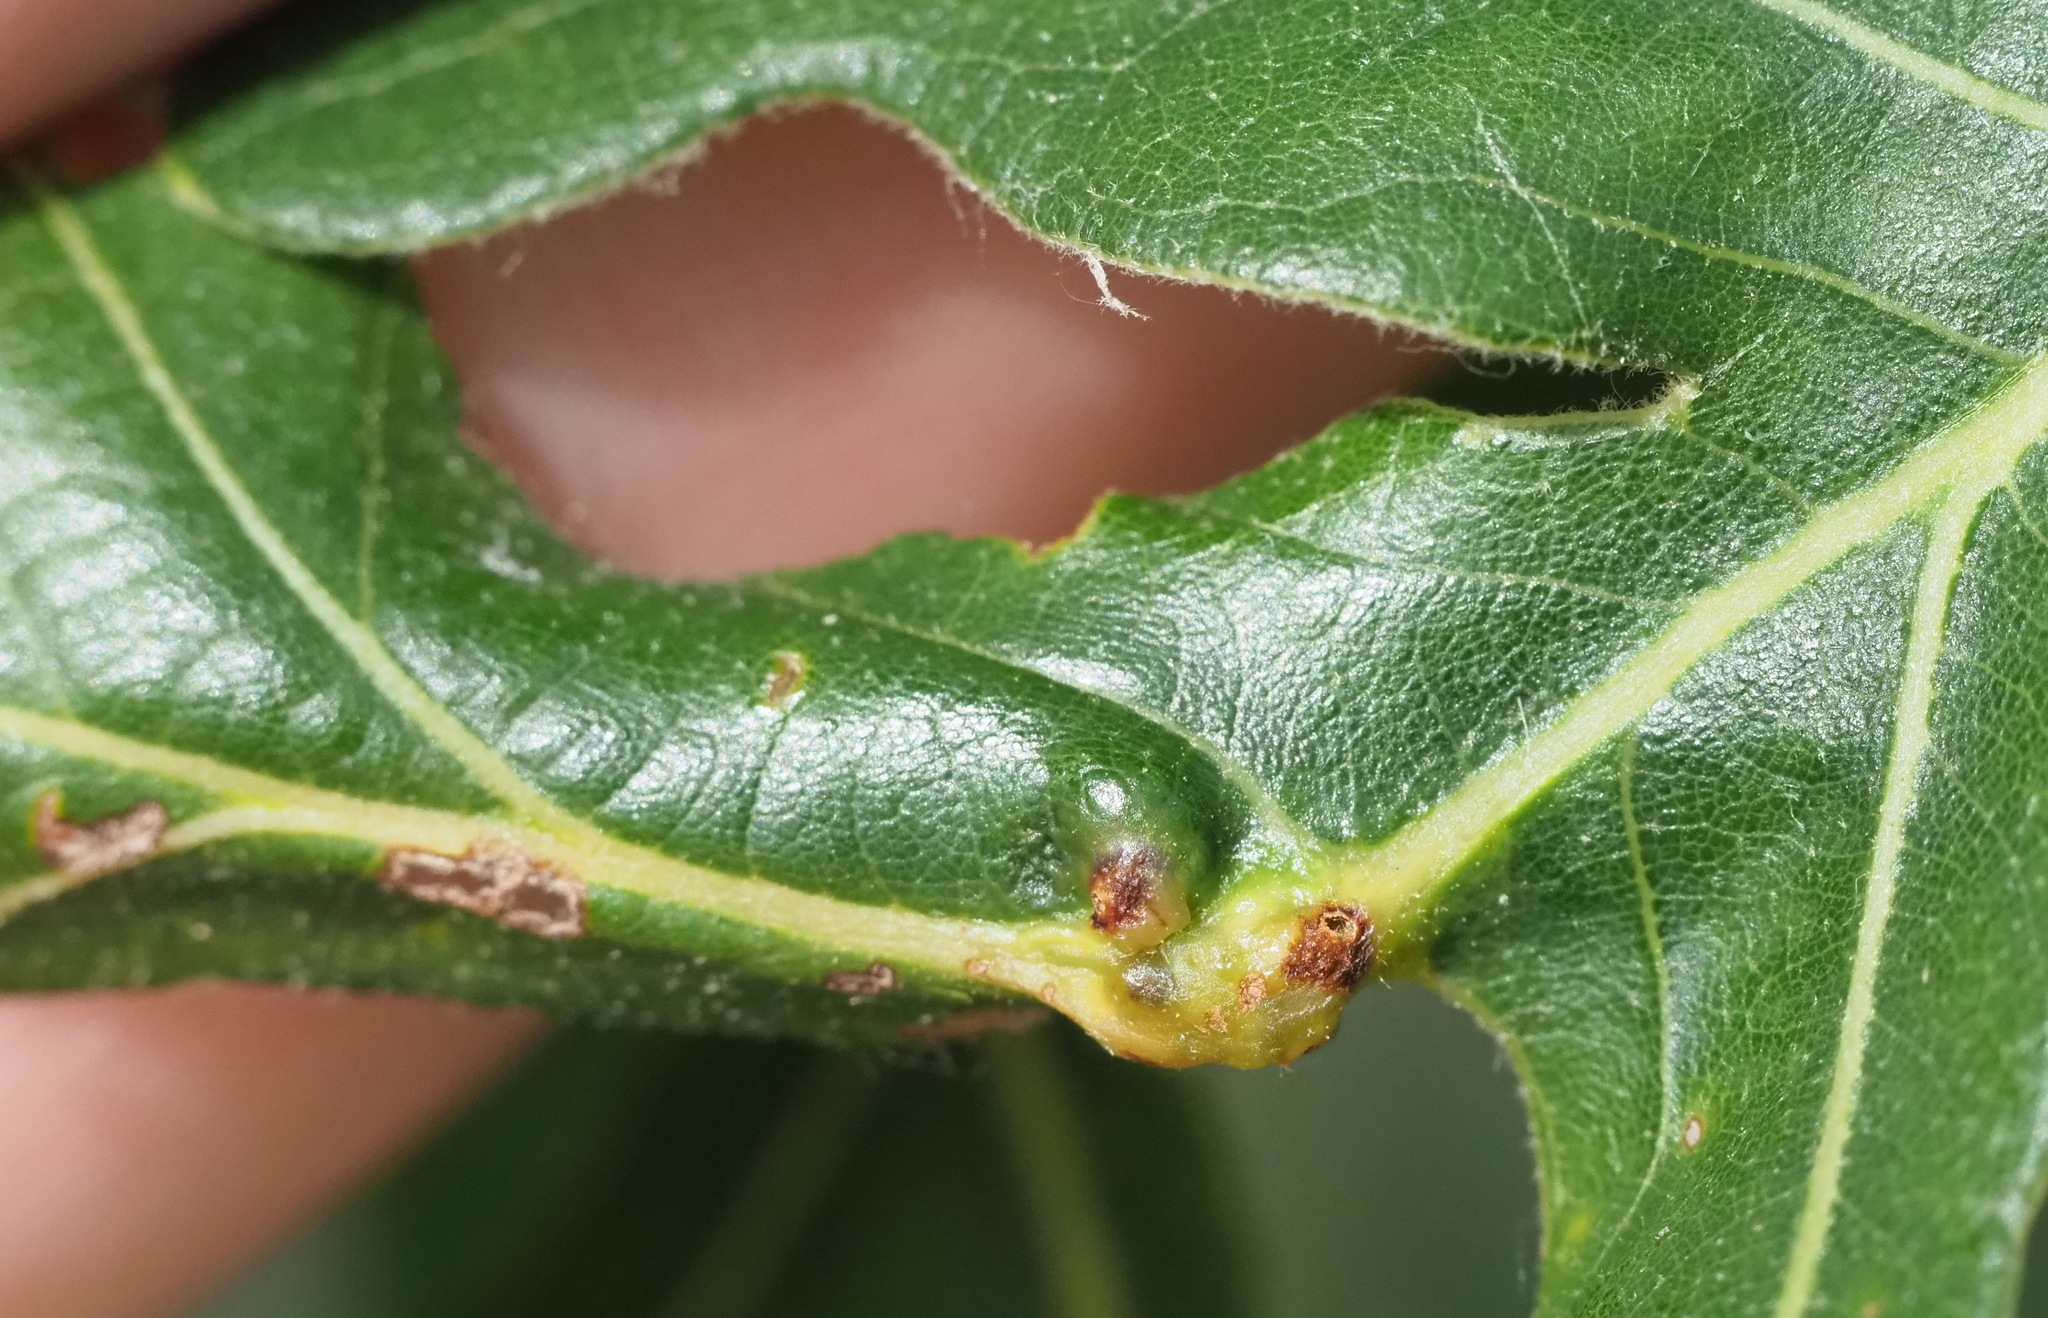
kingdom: Animalia
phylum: Arthropoda
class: Insecta
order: Hymenoptera
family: Cynipidae
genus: Bassettia
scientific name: Bassettia flavipes
